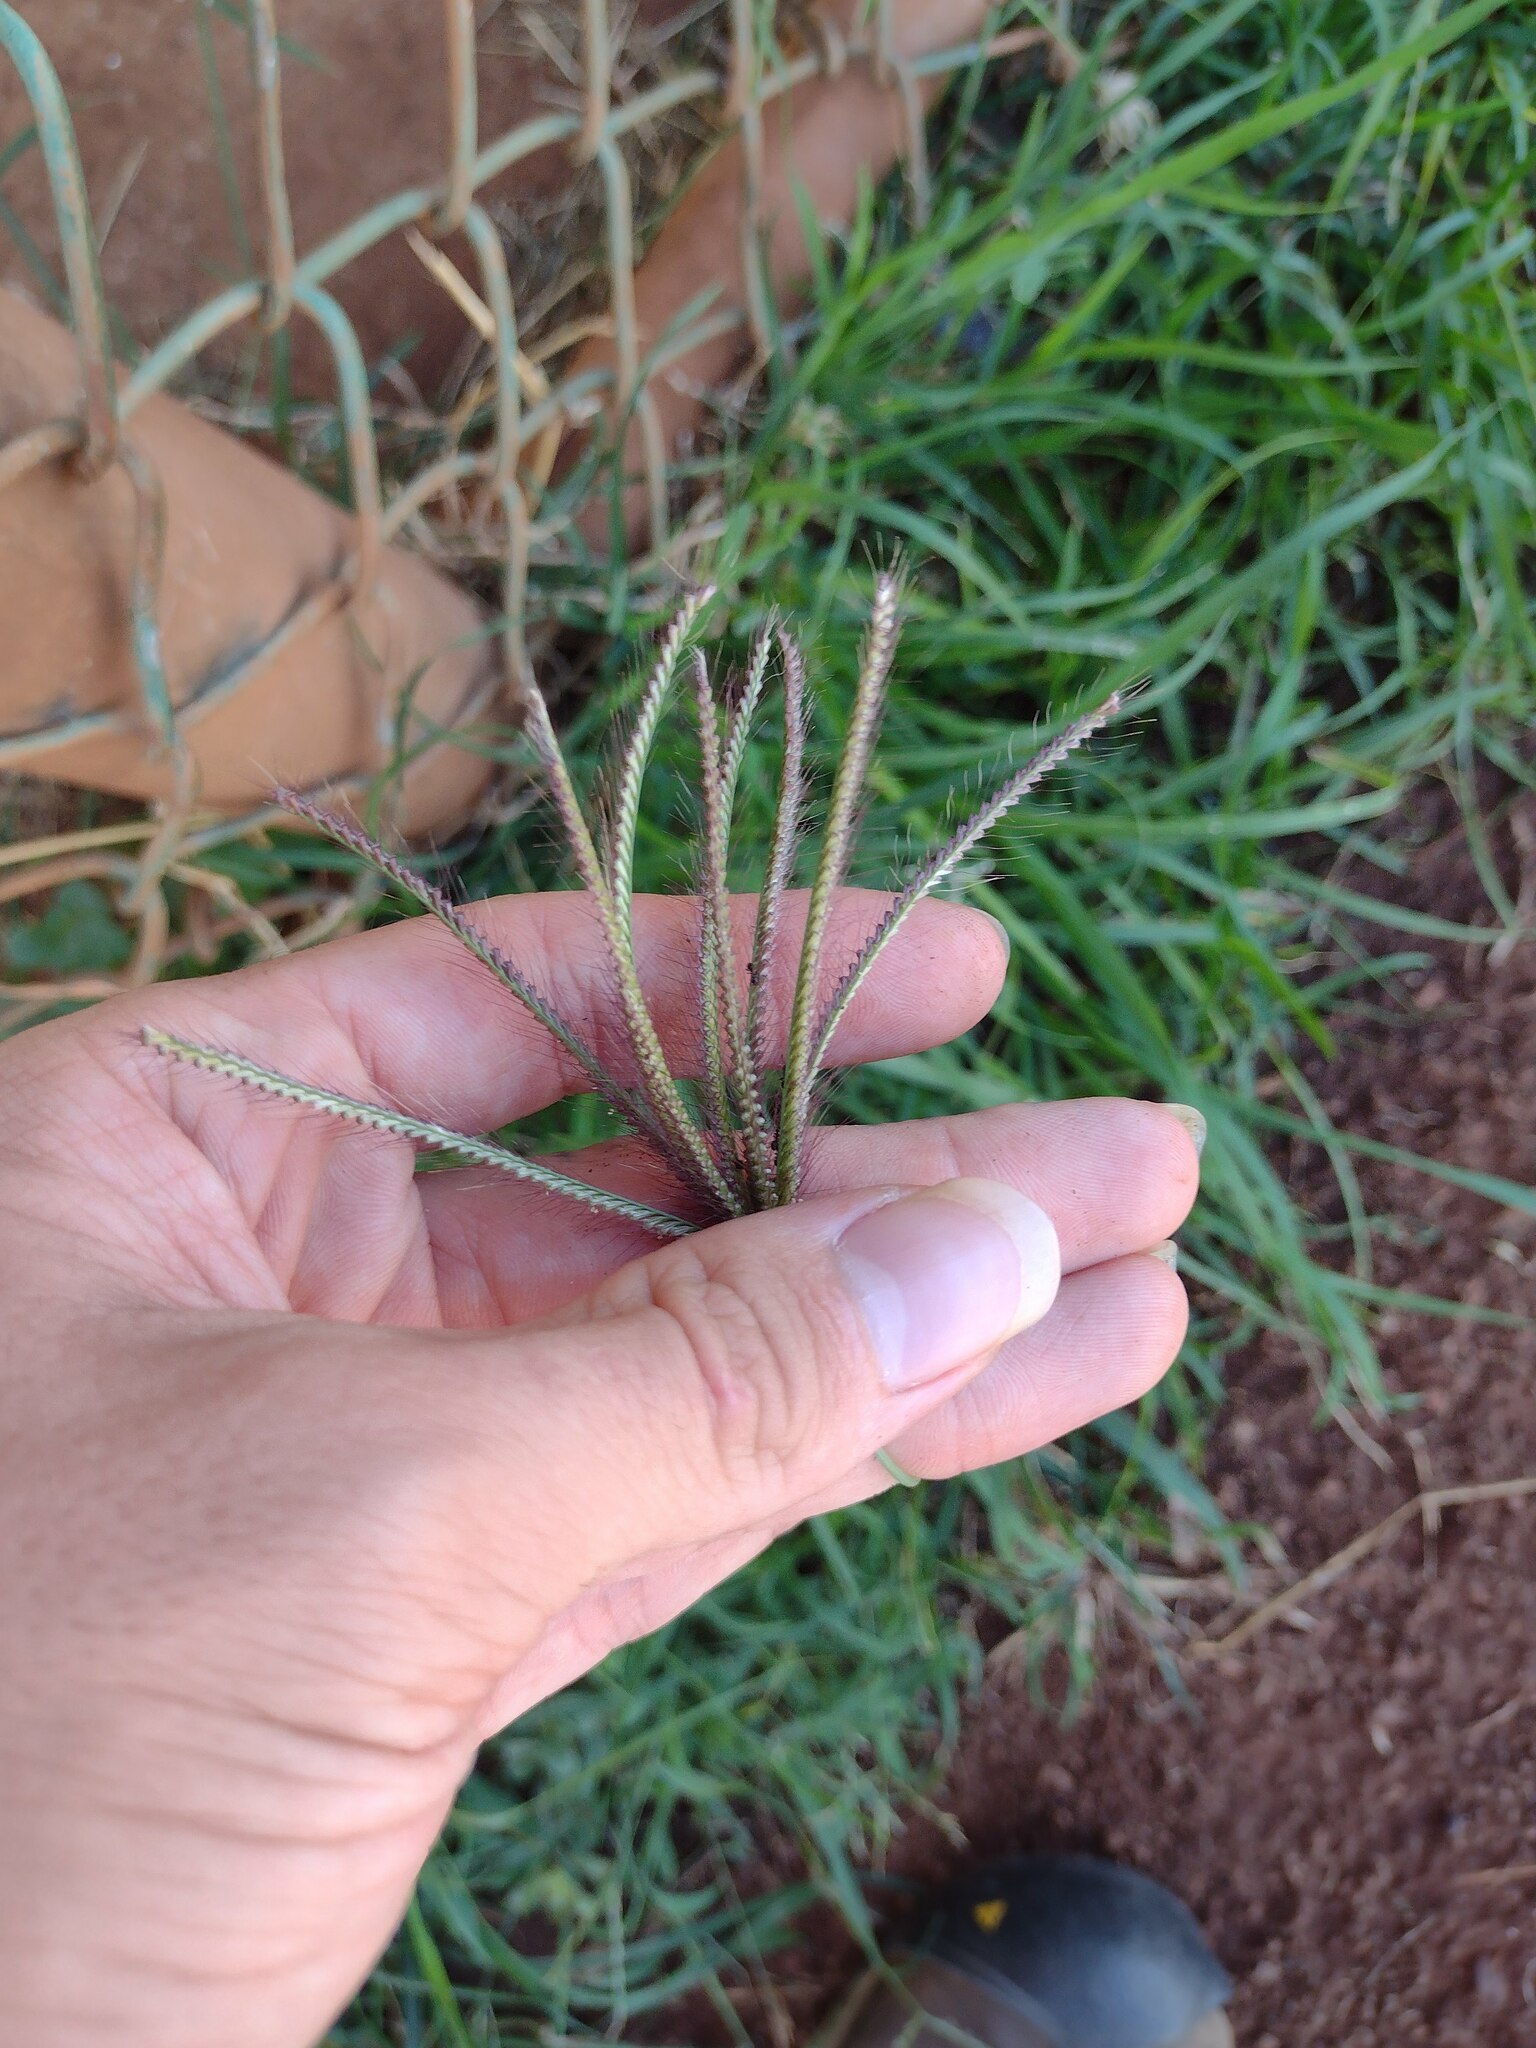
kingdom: Plantae
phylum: Tracheophyta
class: Liliopsida
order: Poales
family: Poaceae
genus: Chloris
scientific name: Chloris barbata
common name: Swollen fingergrass
